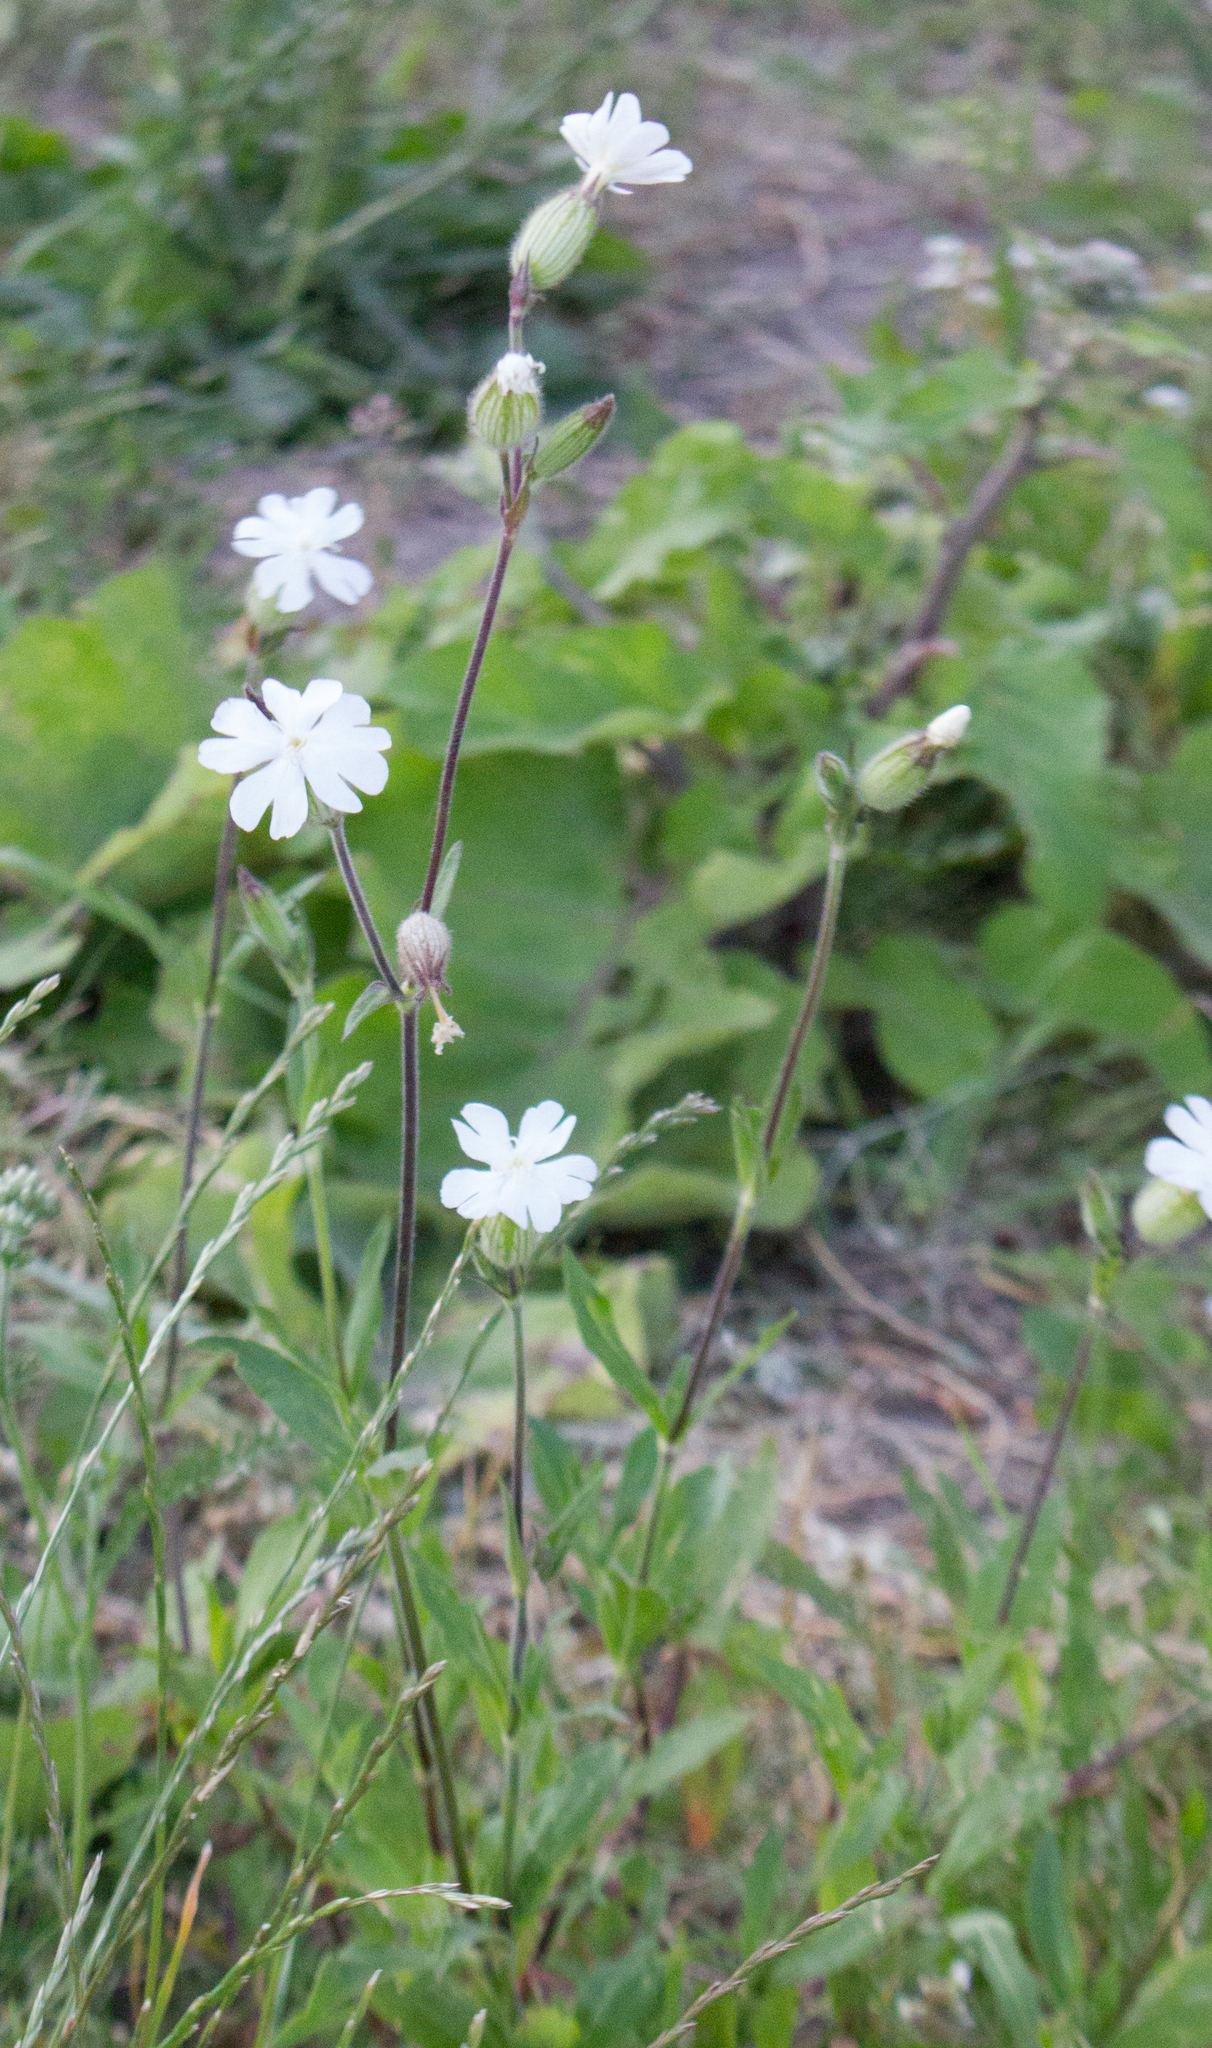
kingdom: Plantae
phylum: Tracheophyta
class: Magnoliopsida
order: Caryophyllales
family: Caryophyllaceae
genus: Silene
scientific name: Silene latifolia
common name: White campion
